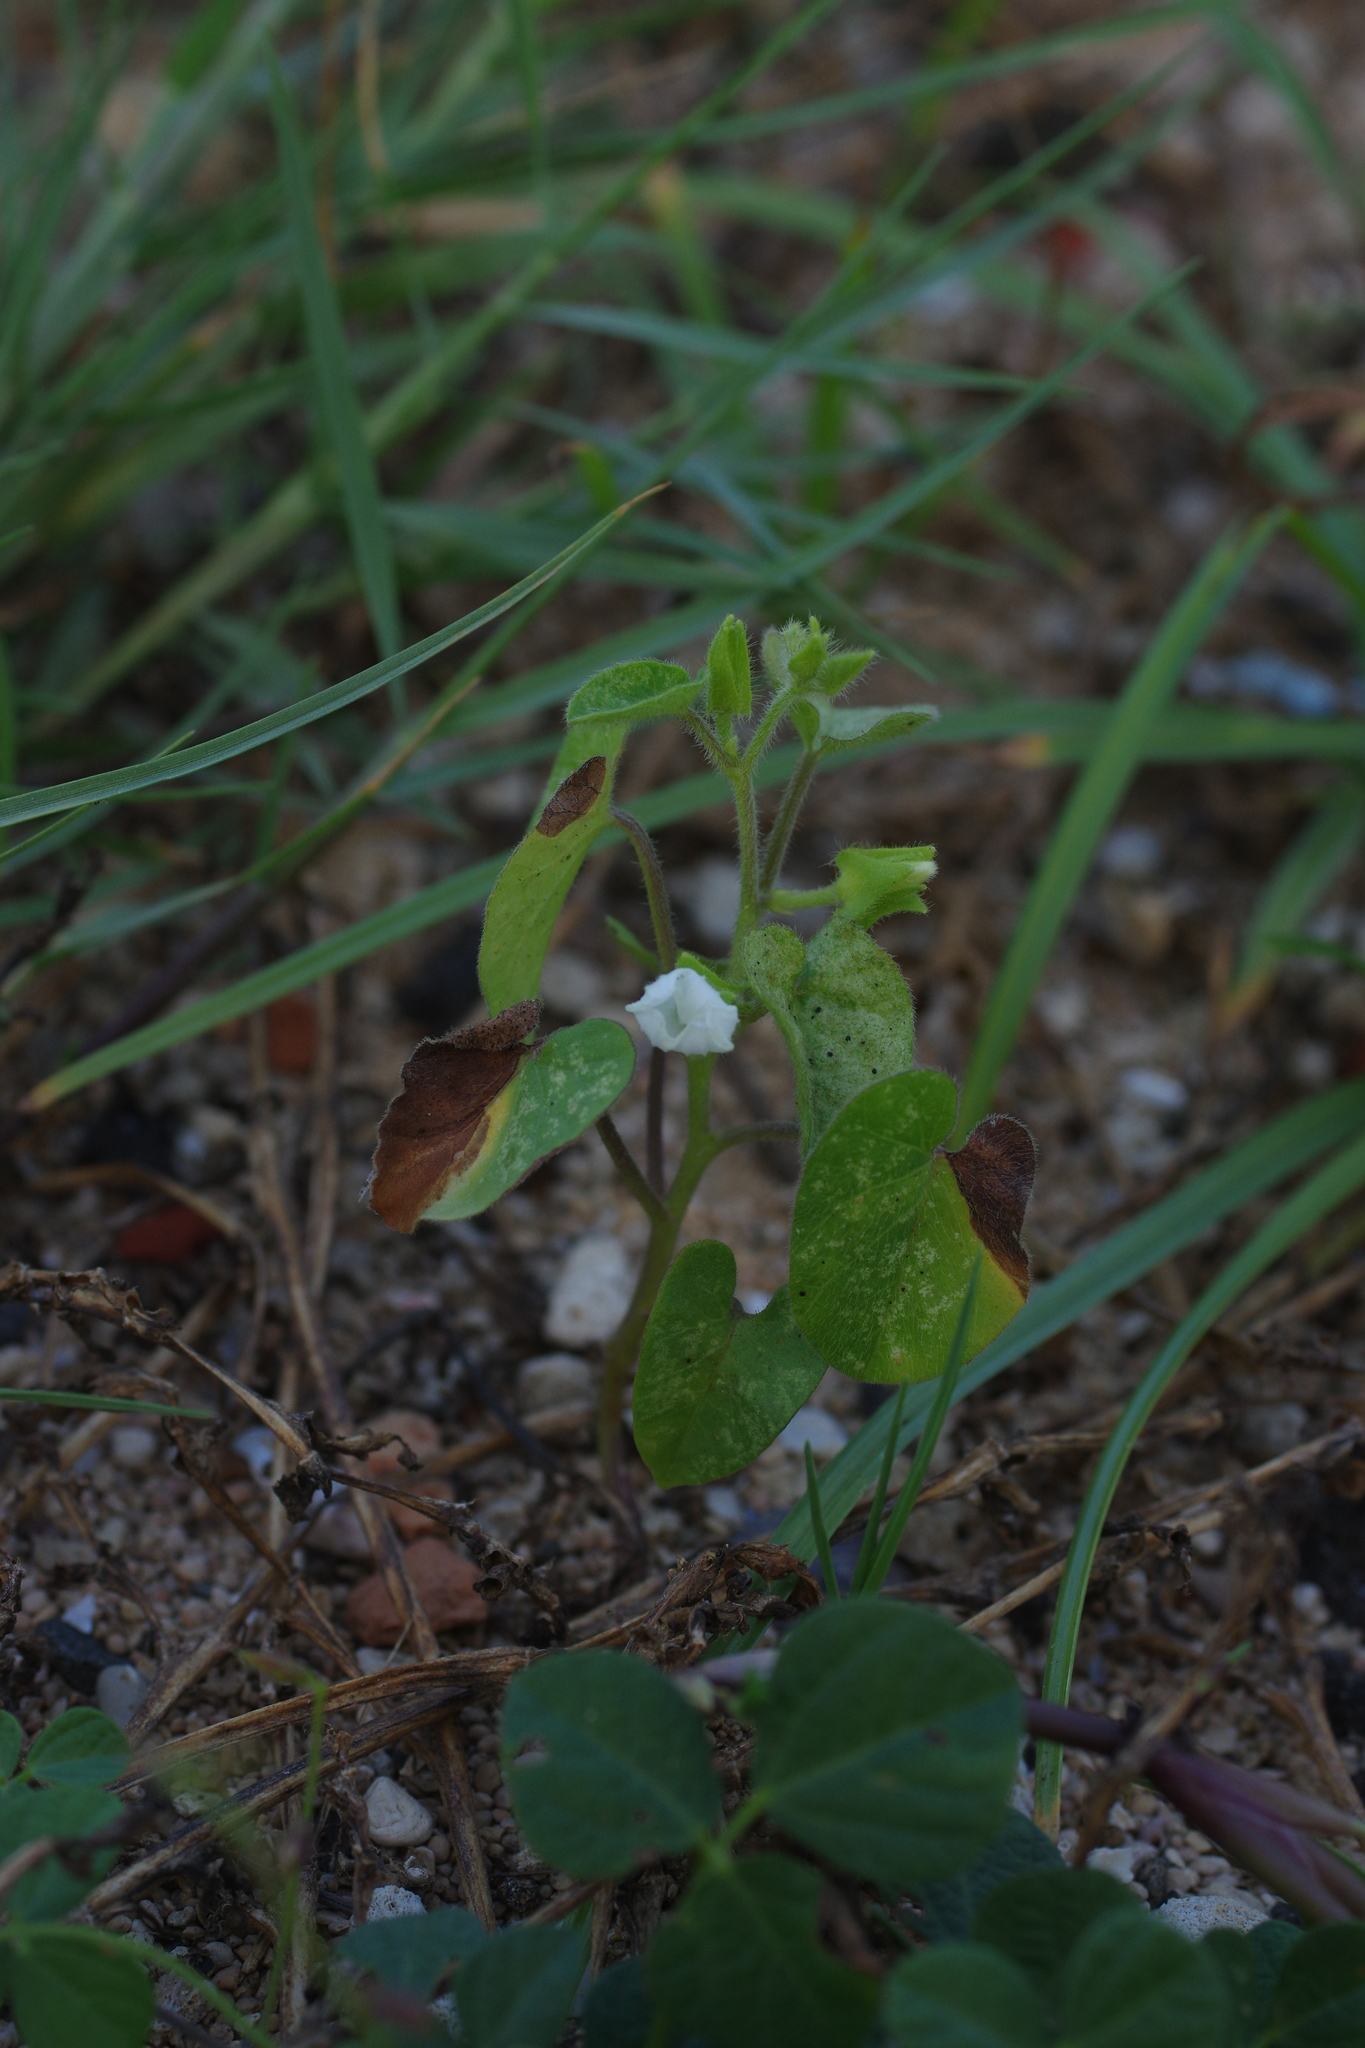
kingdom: Plantae
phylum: Tracheophyta
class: Magnoliopsida
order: Solanales
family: Convolvulaceae
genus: Ipomoea
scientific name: Ipomoea biflora
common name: Bellvine
